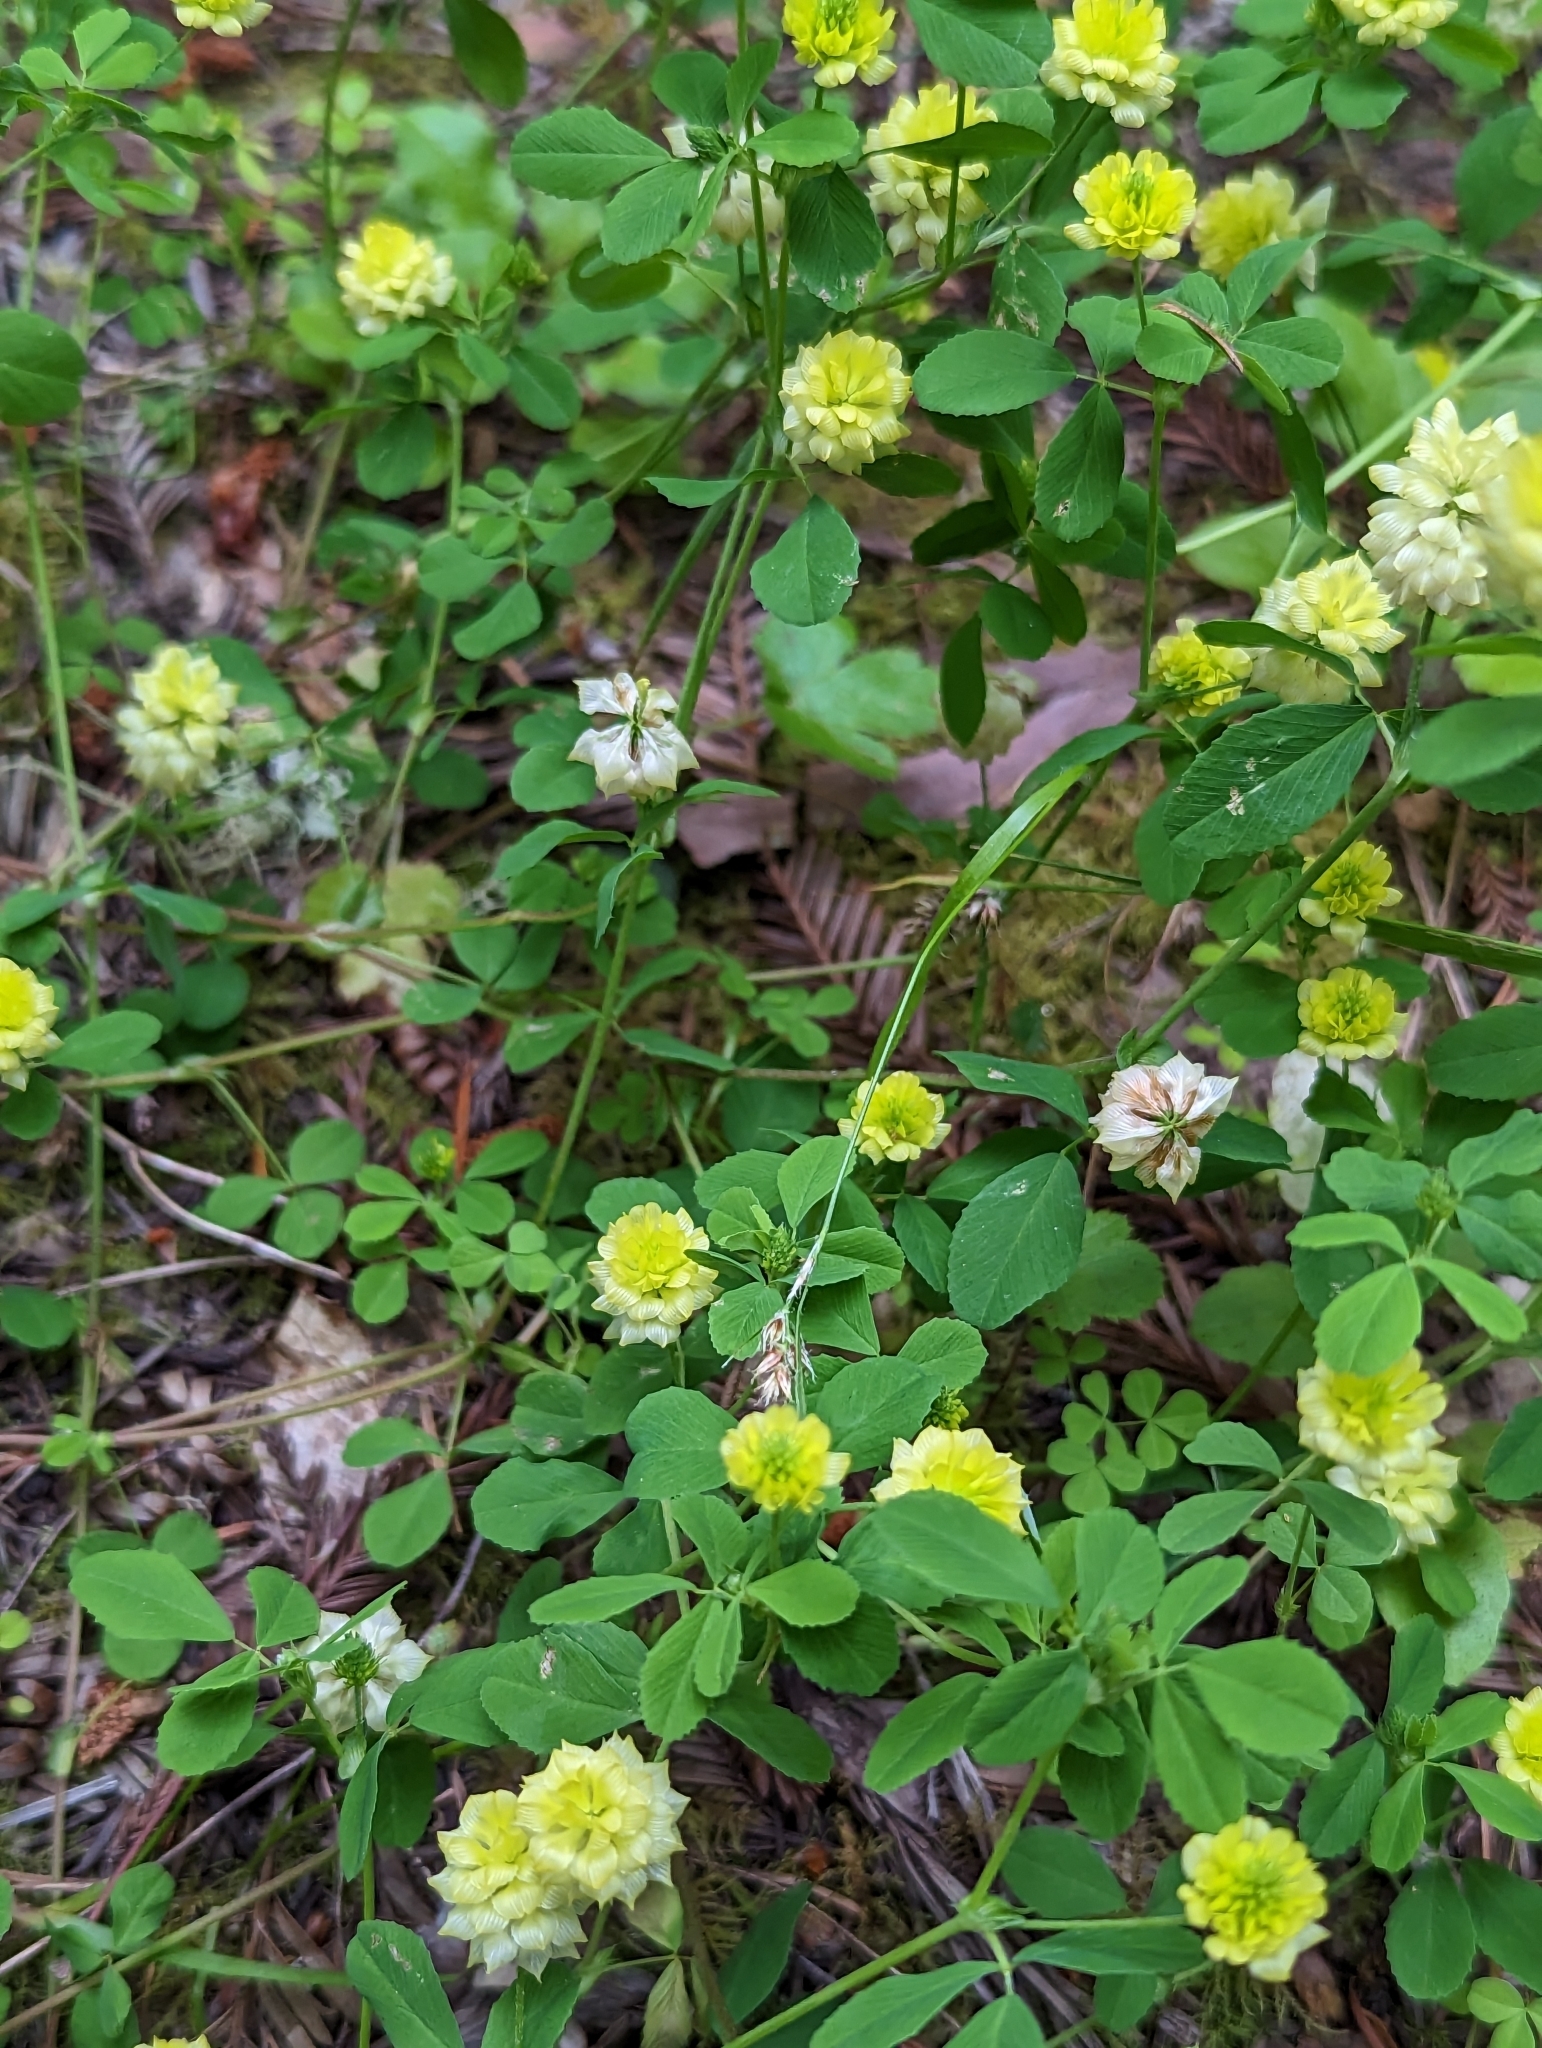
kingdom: Plantae
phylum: Tracheophyta
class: Magnoliopsida
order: Fabales
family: Fabaceae
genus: Trifolium
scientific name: Trifolium campestre
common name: Field clover
